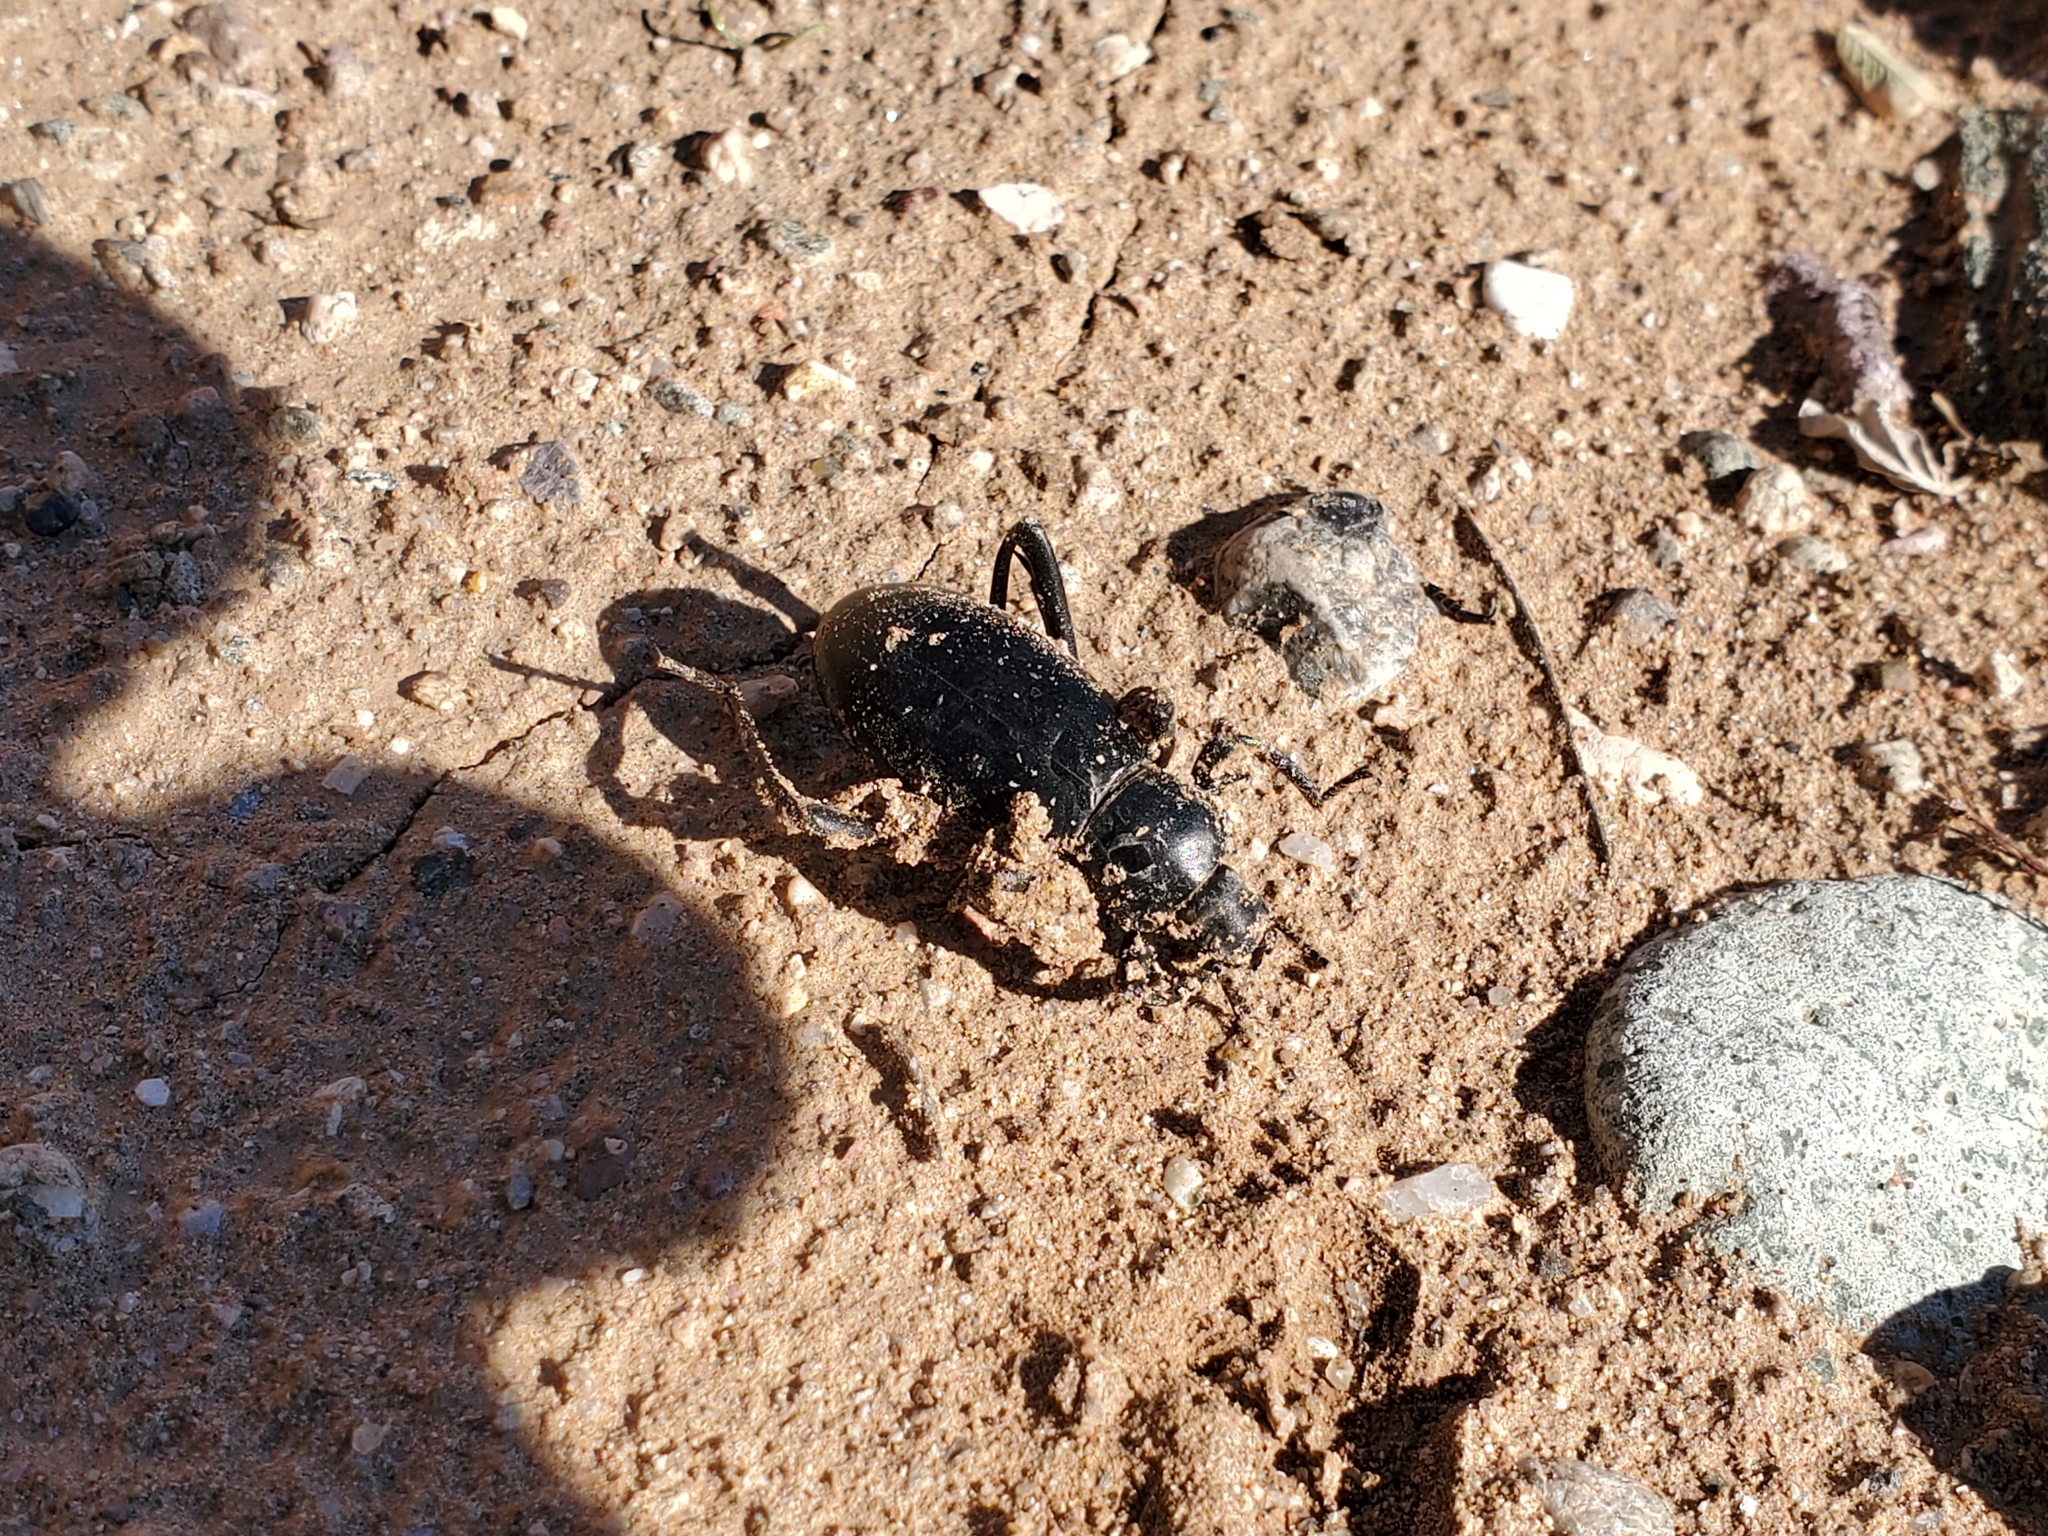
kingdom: Animalia
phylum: Arthropoda
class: Insecta
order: Coleoptera
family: Tenebrionidae
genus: Eleodes
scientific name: Eleodes armata
